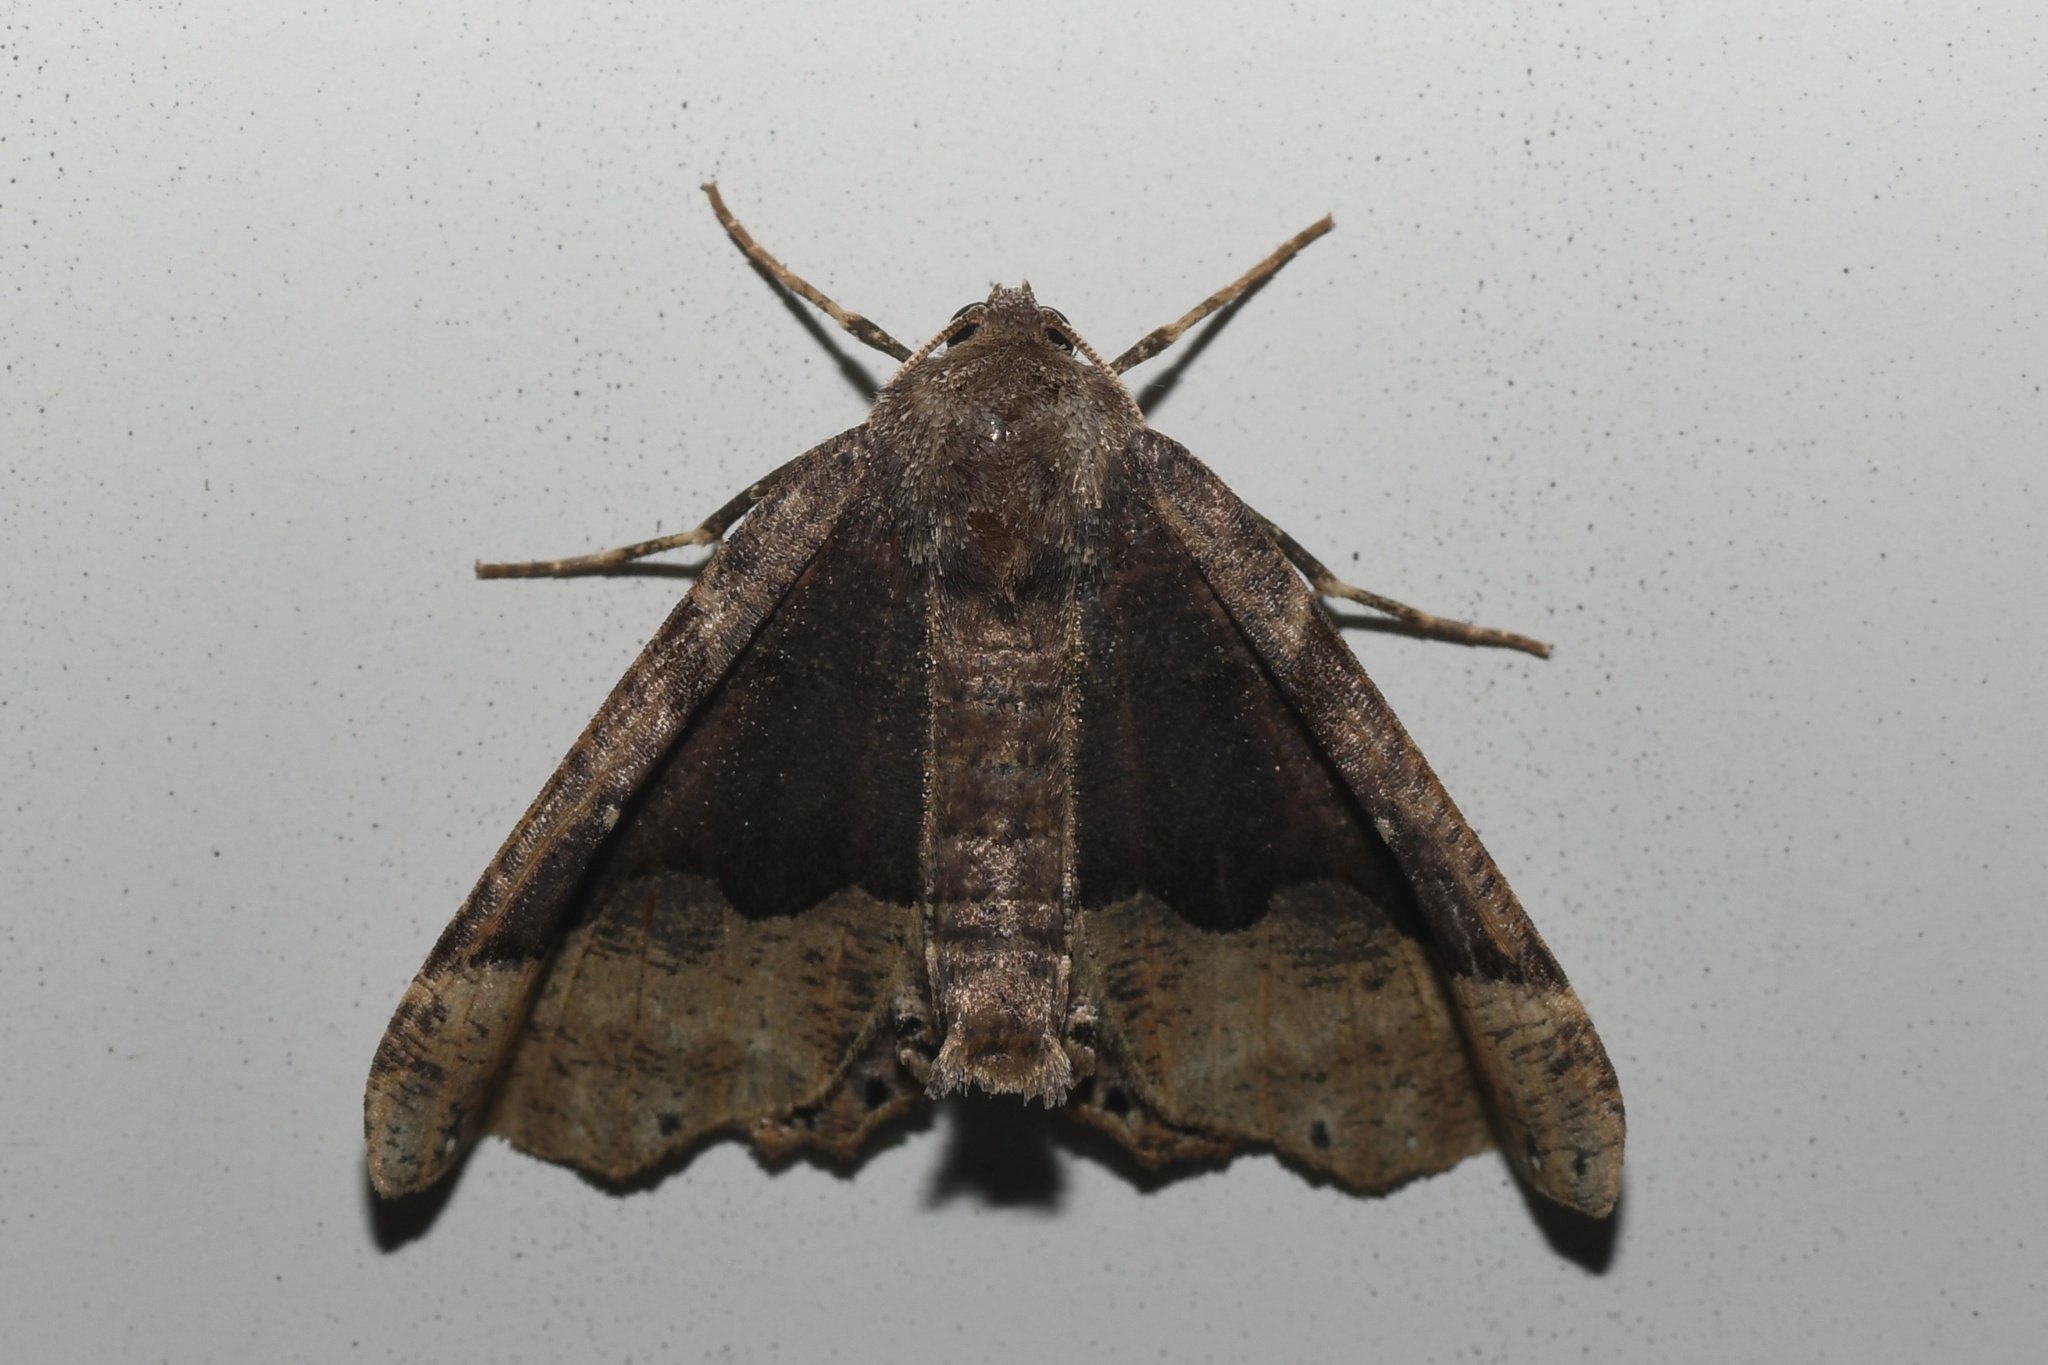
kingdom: Animalia
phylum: Arthropoda
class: Insecta
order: Lepidoptera
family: Geometridae
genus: Pero
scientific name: Pero honestaria
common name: Honest pero
